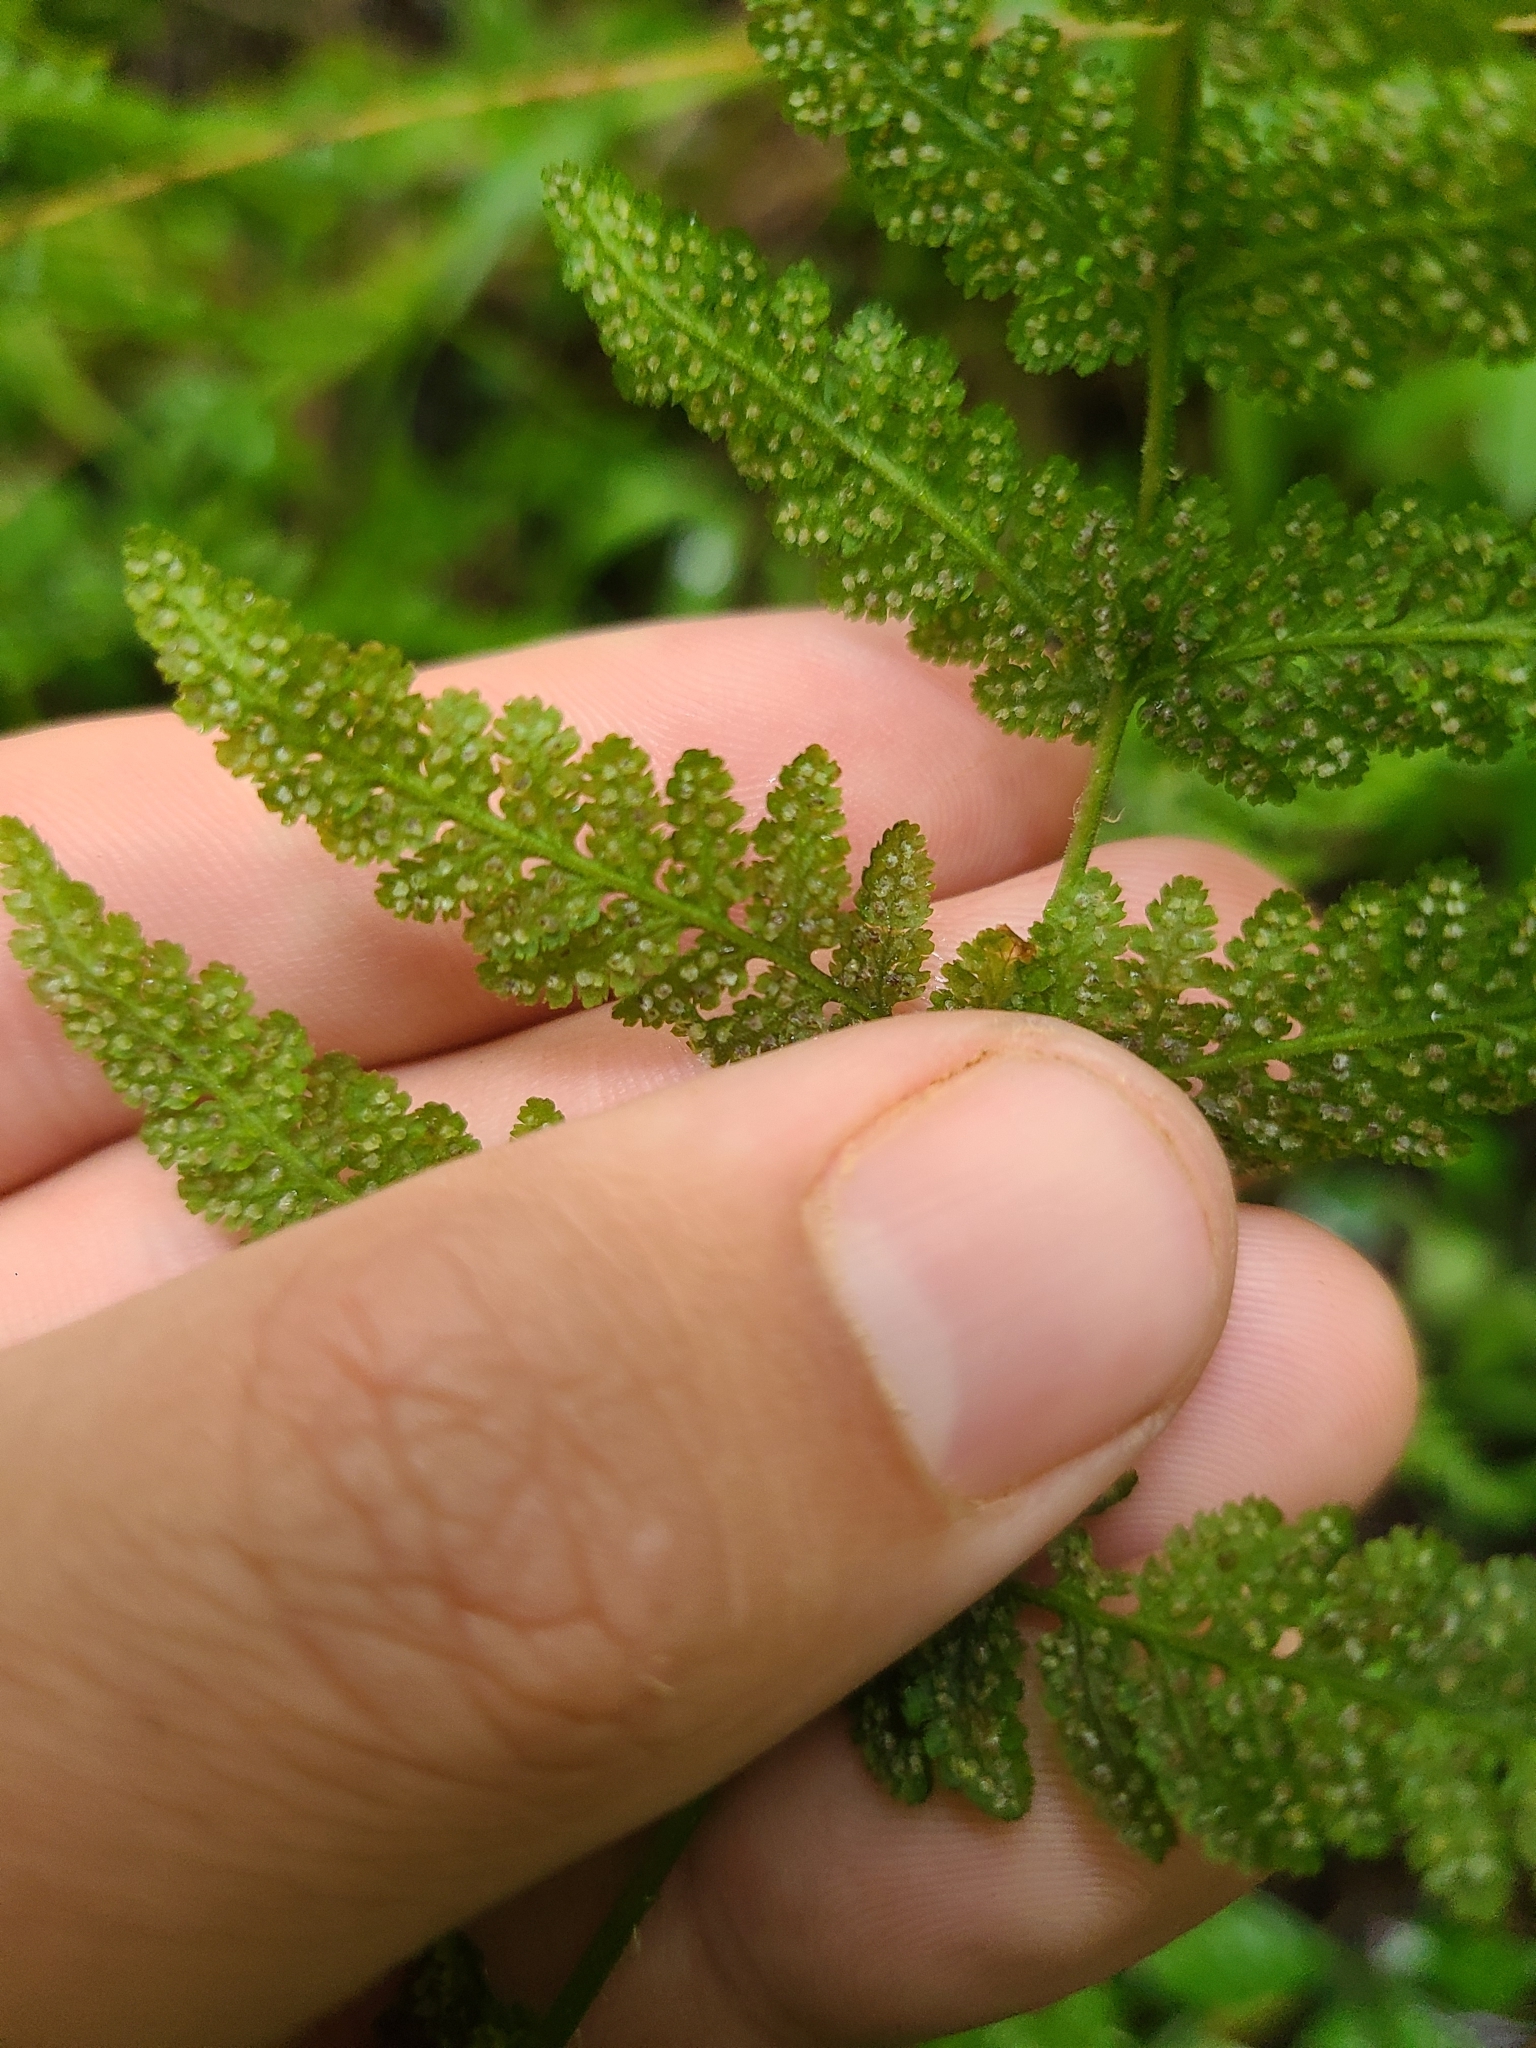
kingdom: Plantae
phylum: Tracheophyta
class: Polypodiopsida
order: Polypodiales
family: Woodsiaceae
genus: Physematium
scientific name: Physematium obtusum
